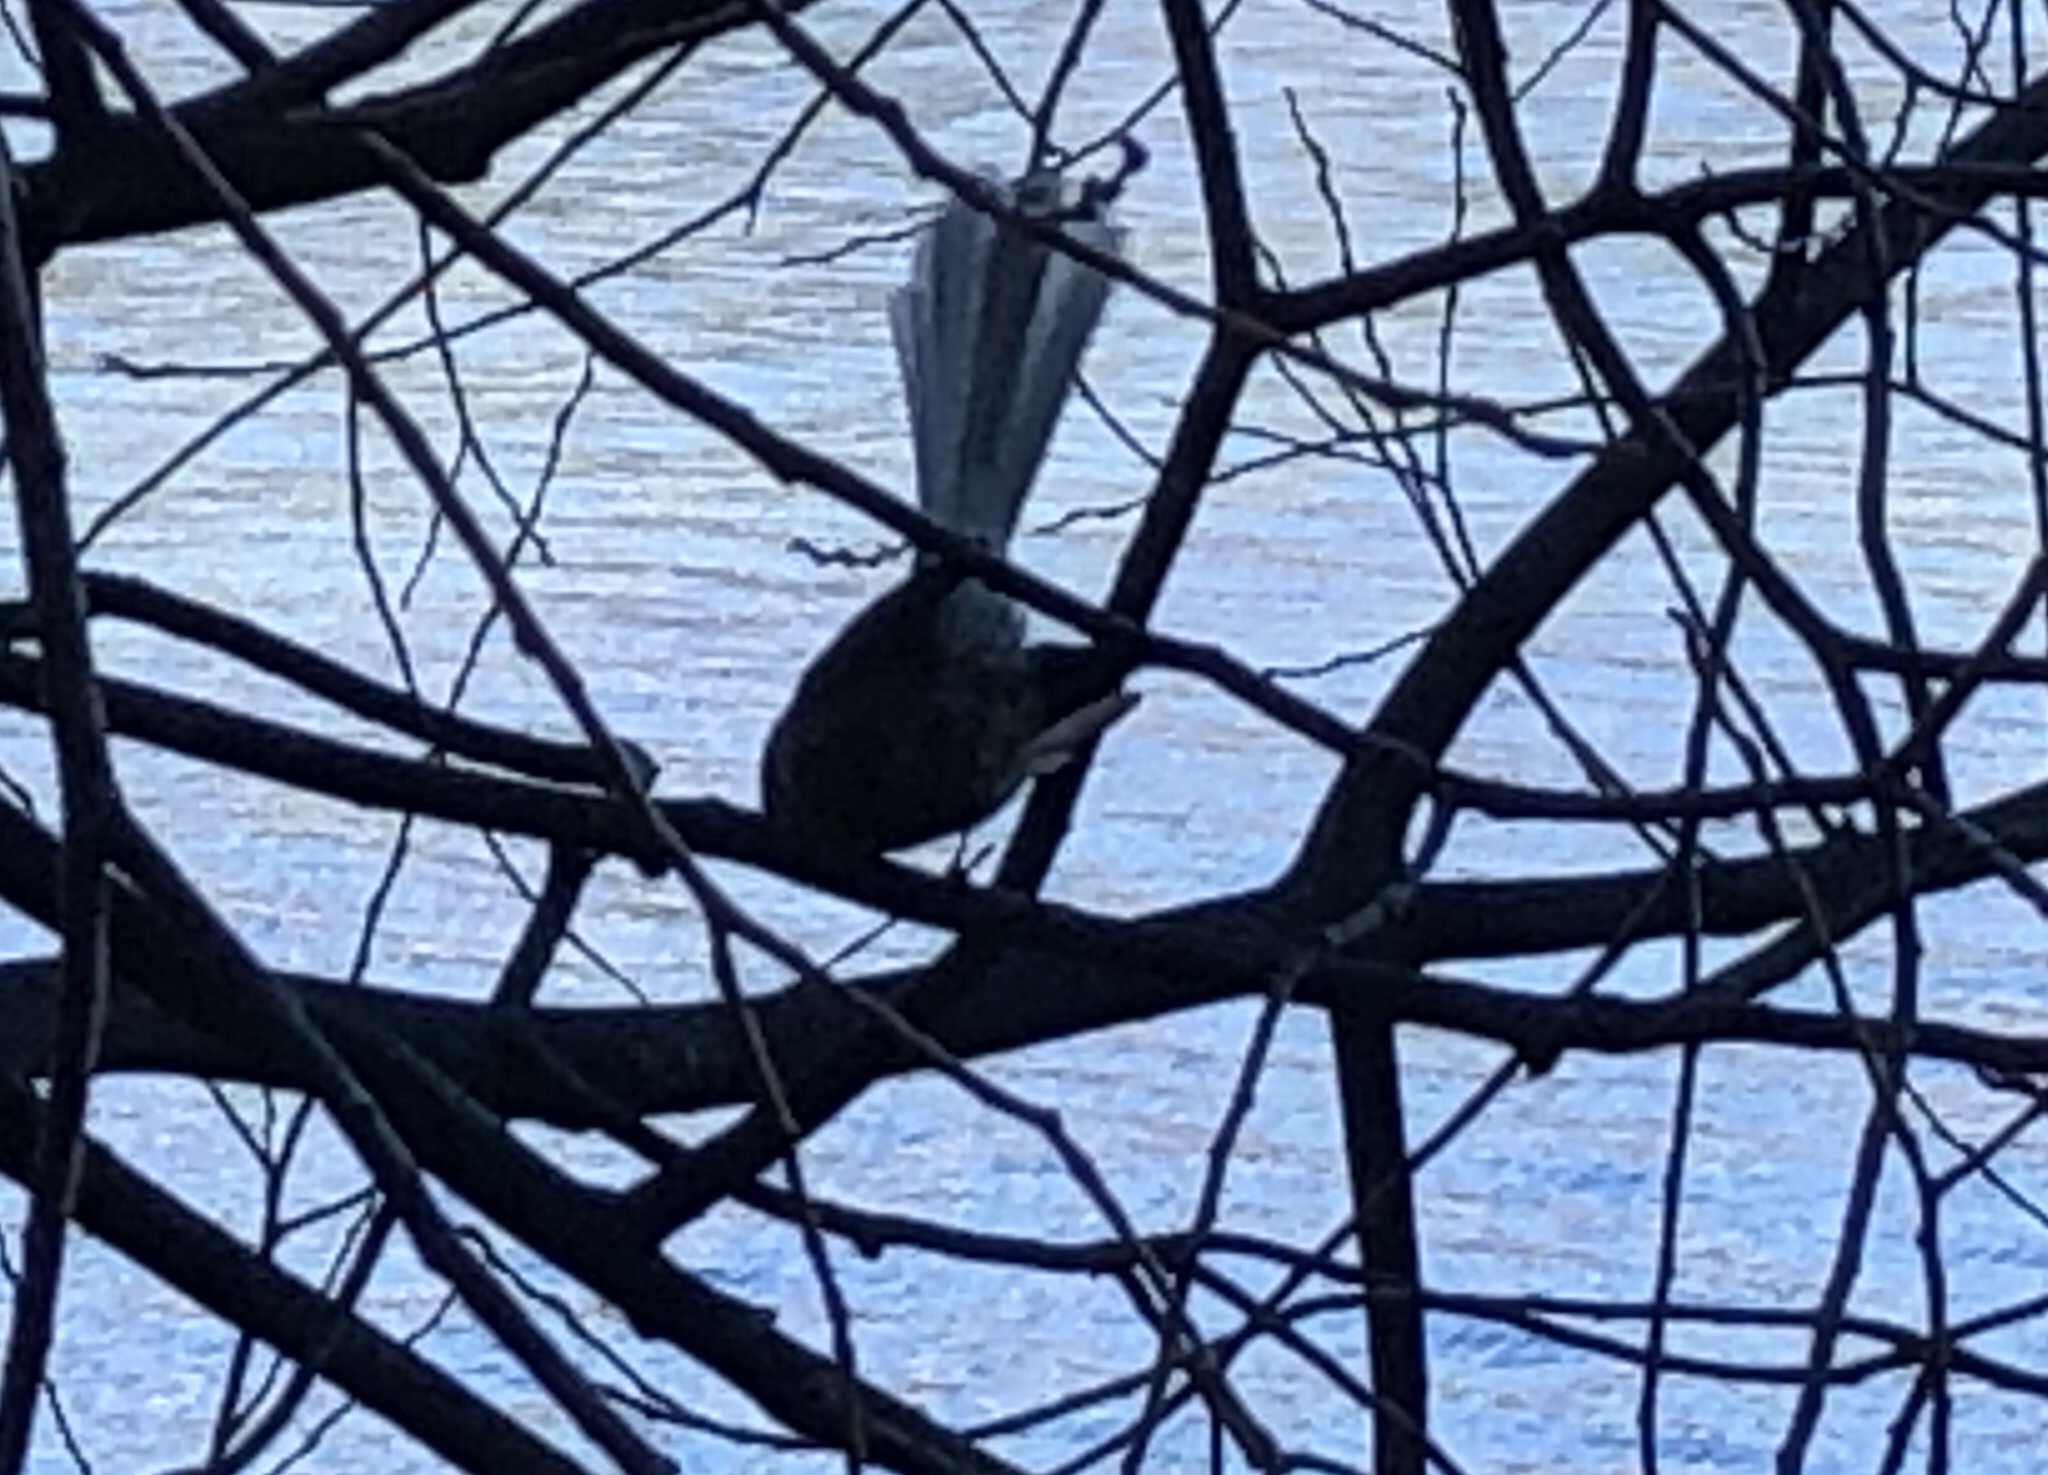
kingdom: Animalia
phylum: Chordata
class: Aves
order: Passeriformes
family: Rhipiduridae
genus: Rhipidura
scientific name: Rhipidura fuliginosa
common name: New zealand fantail
